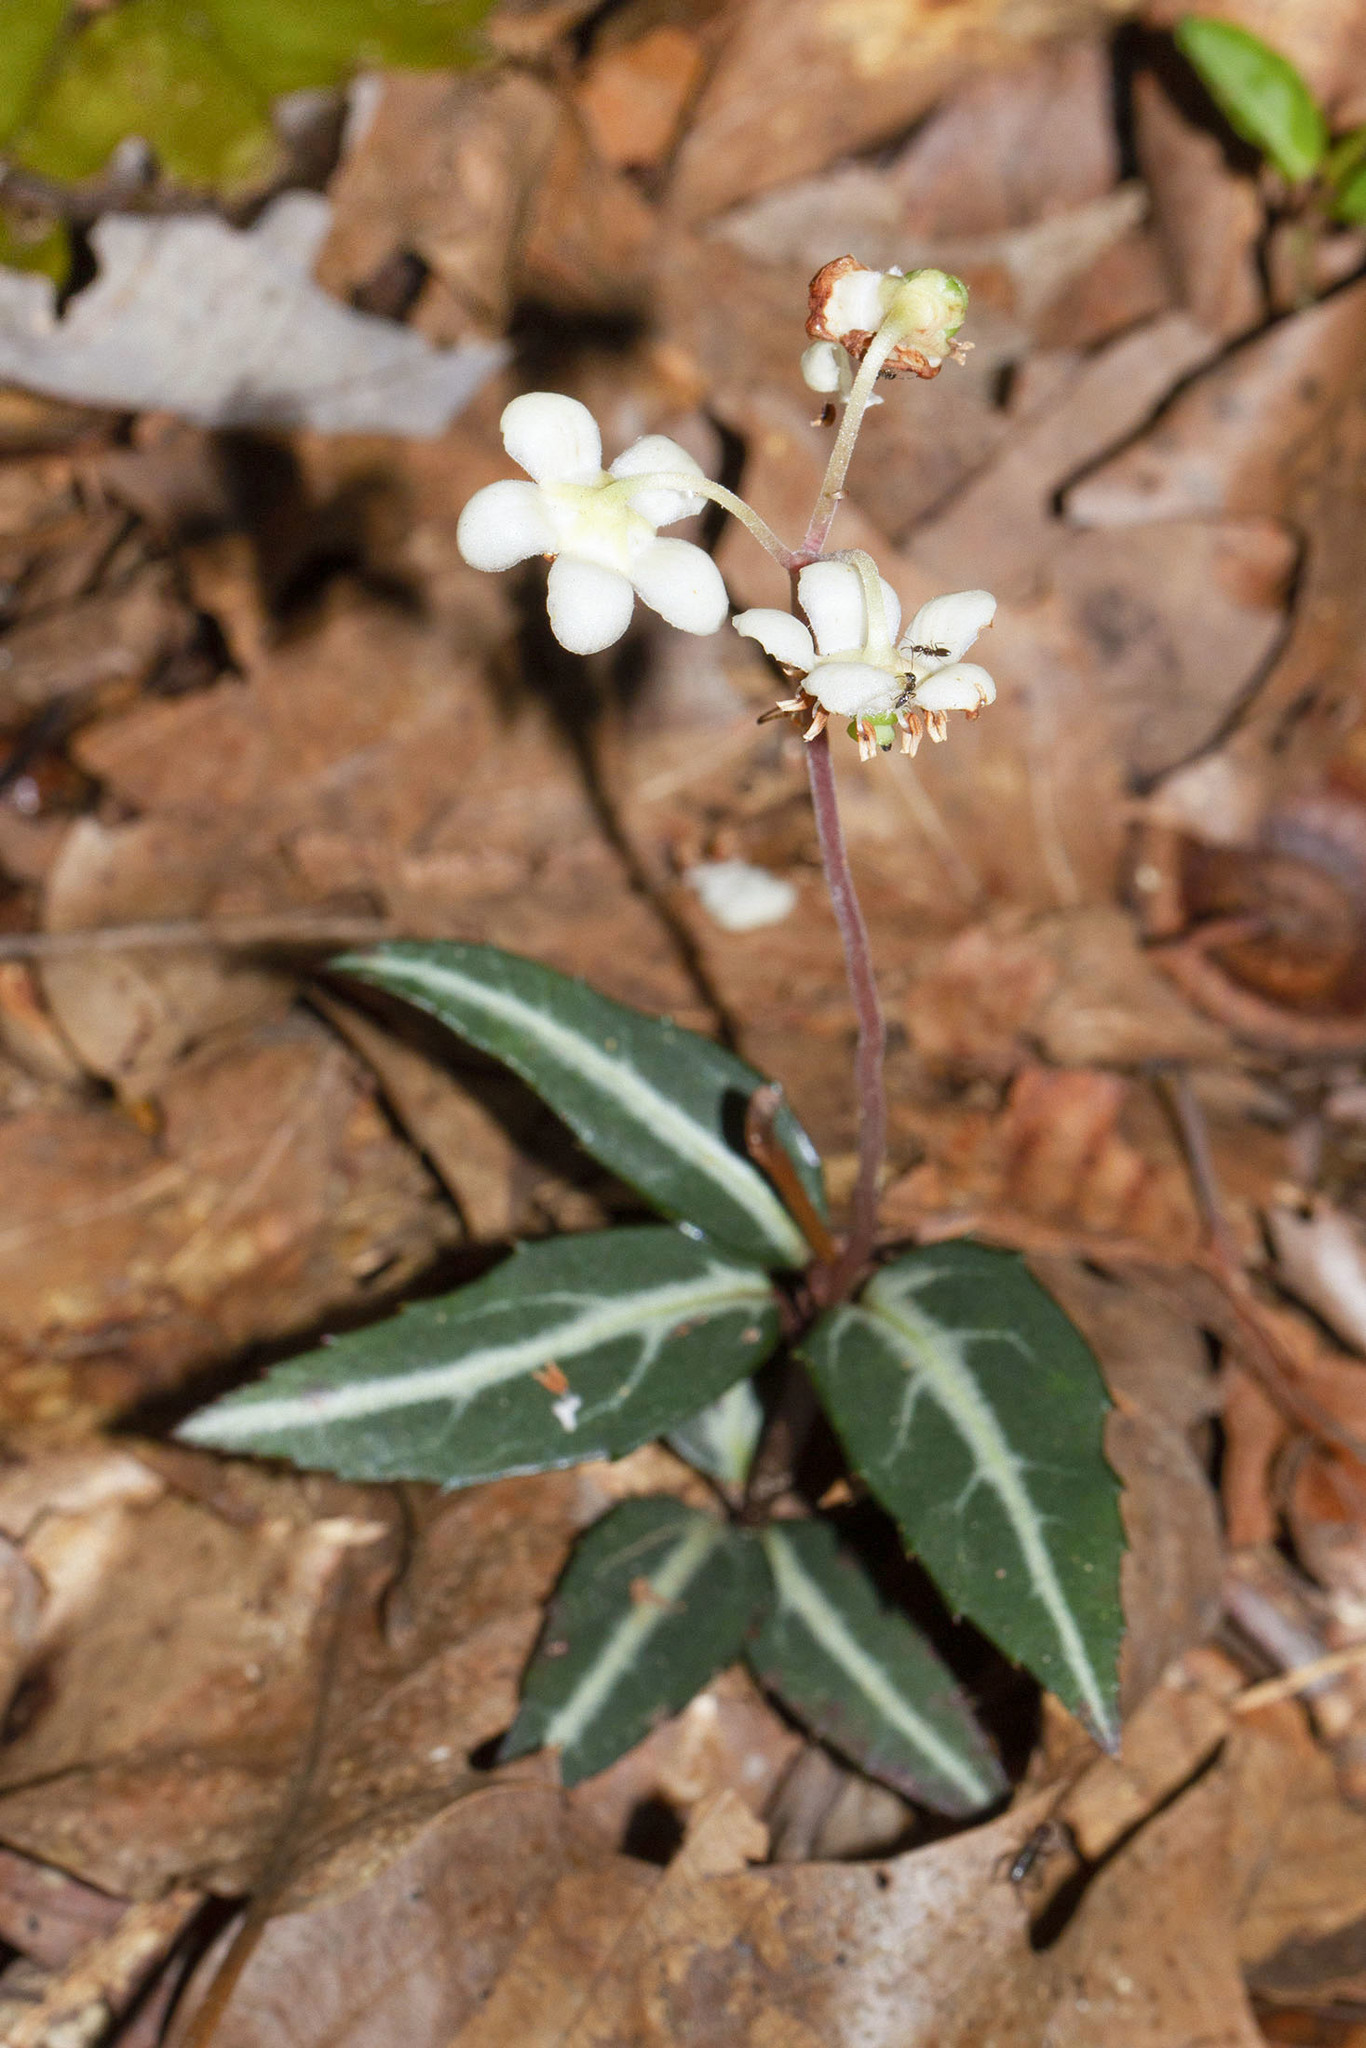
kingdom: Plantae
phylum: Tracheophyta
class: Magnoliopsida
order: Ericales
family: Ericaceae
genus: Chimaphila
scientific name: Chimaphila maculata
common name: Spotted pipsissewa
